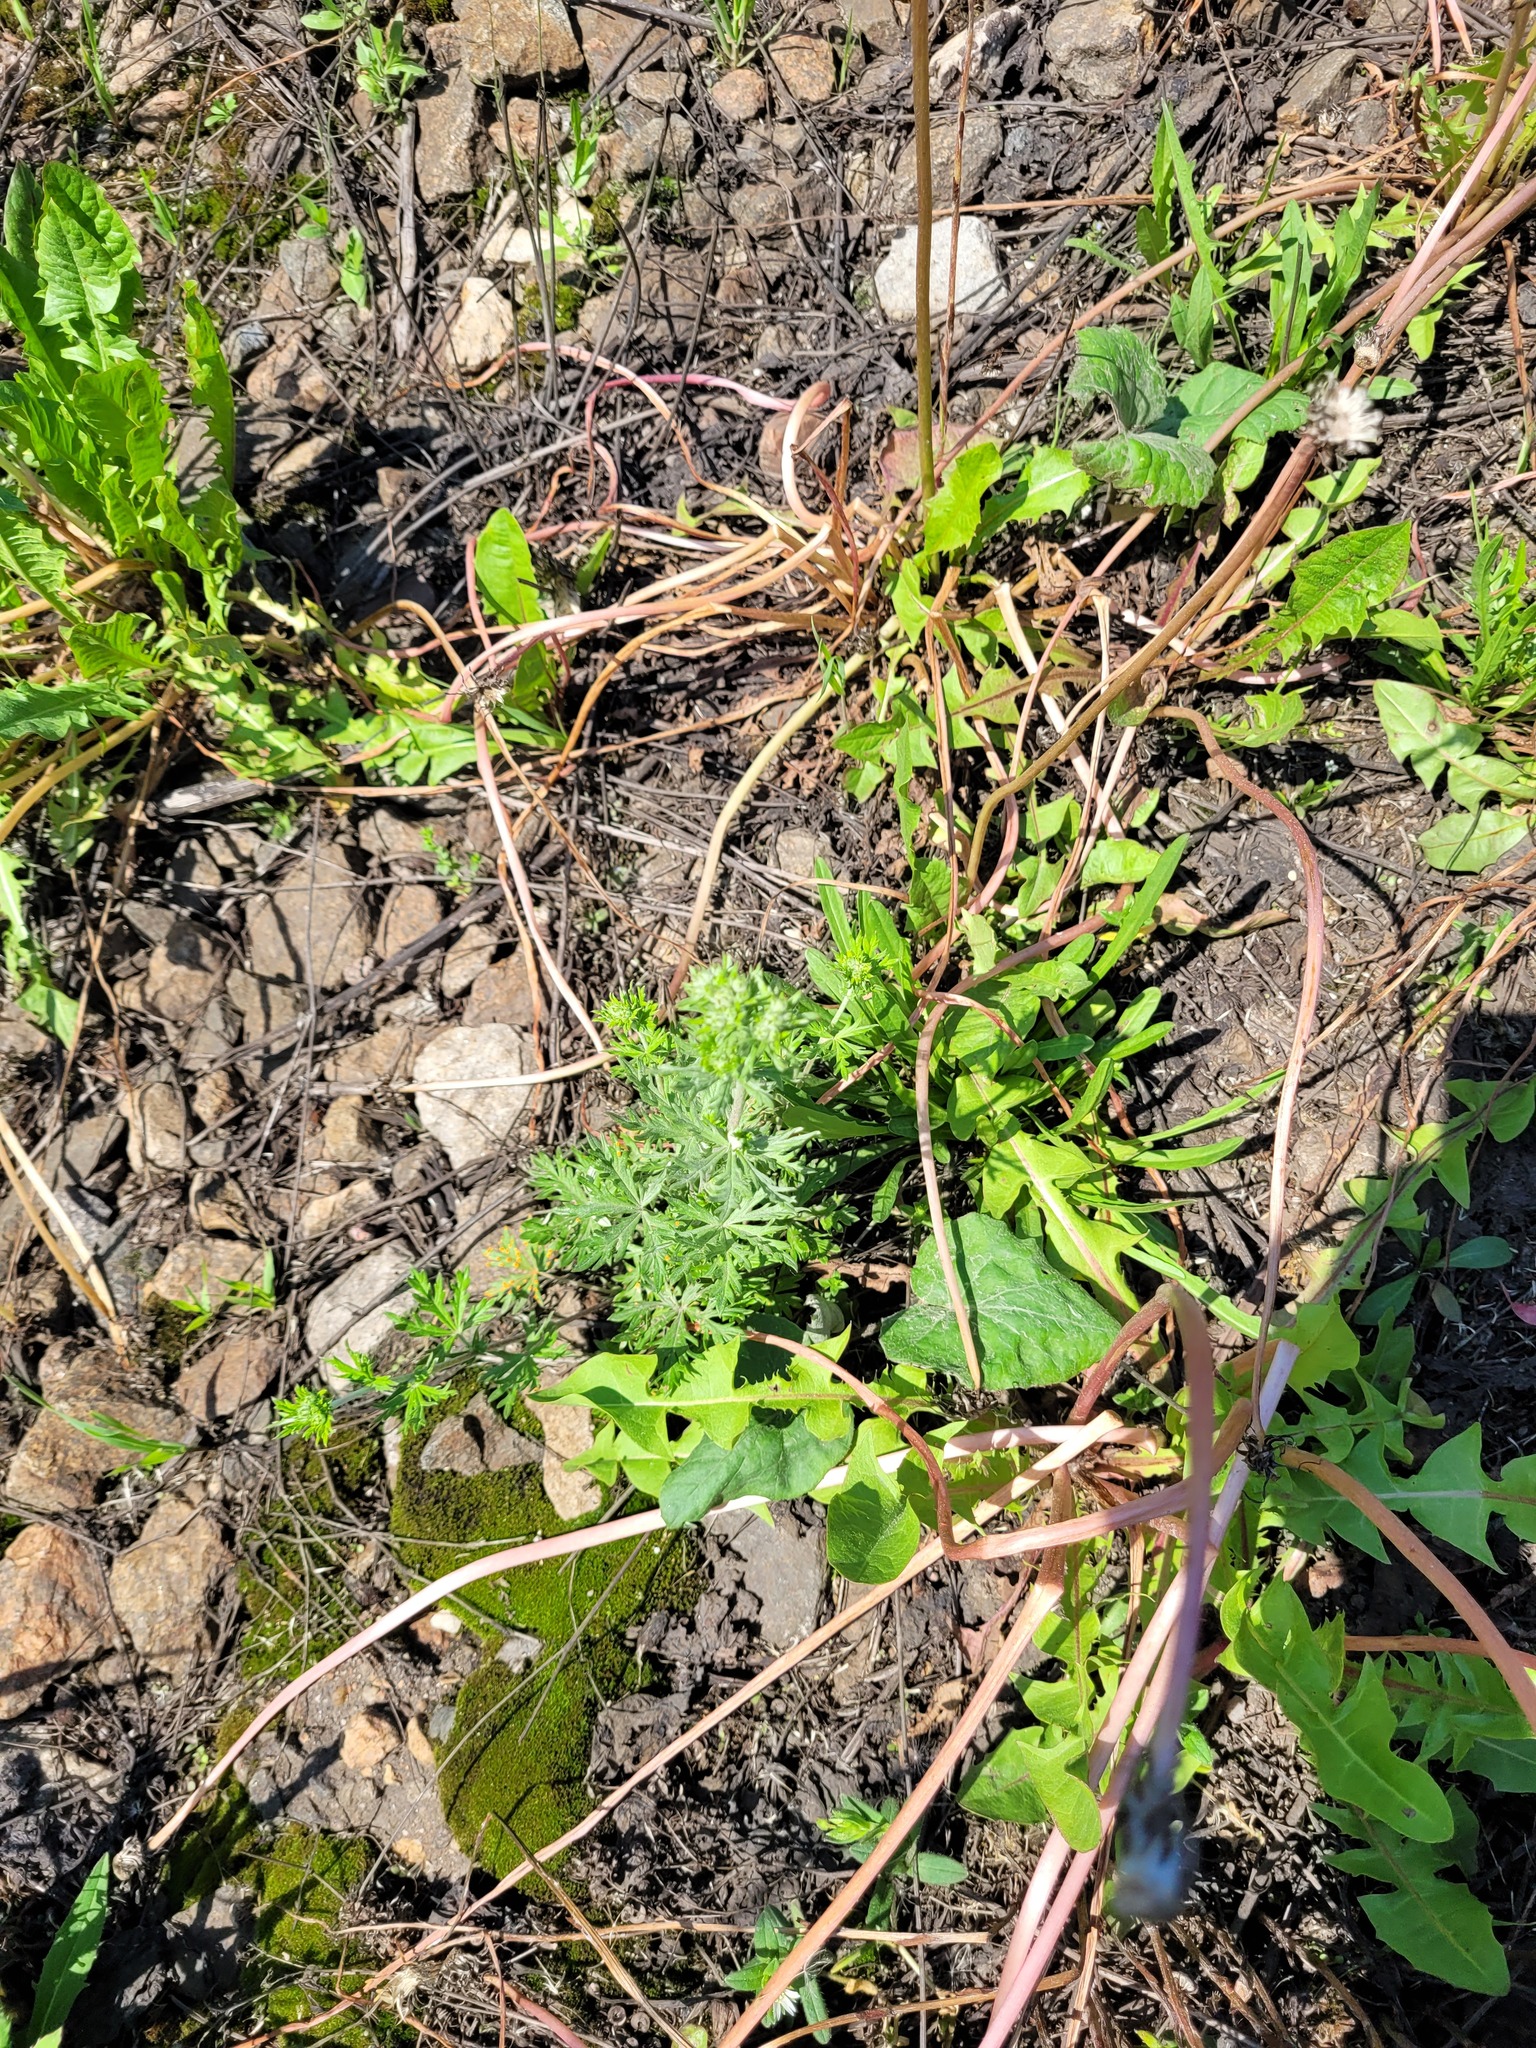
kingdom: Plantae
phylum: Tracheophyta
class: Magnoliopsida
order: Rosales
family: Rosaceae
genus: Potentilla
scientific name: Potentilla argentea
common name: Hoary cinquefoil
